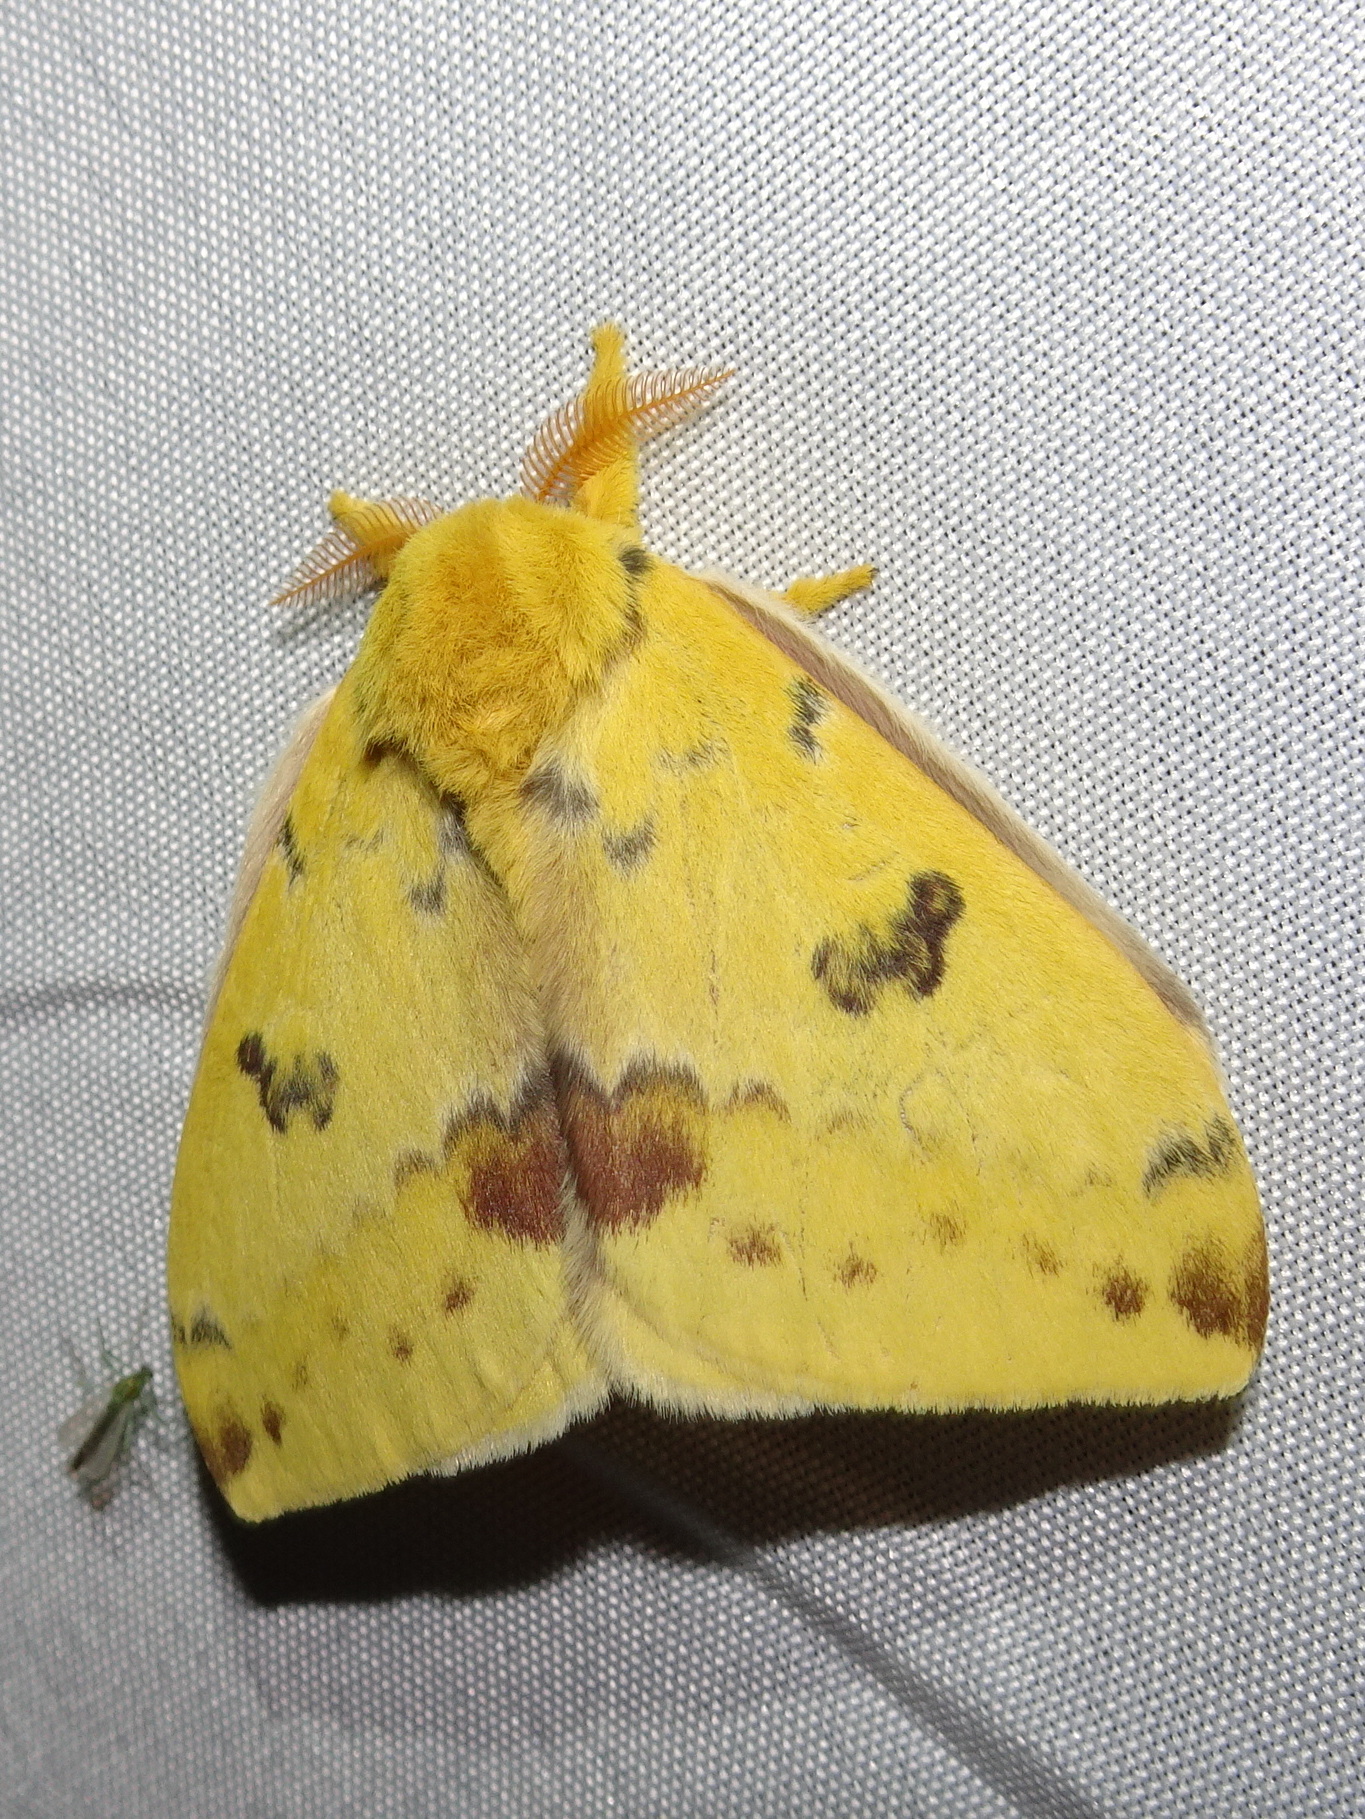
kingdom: Animalia
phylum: Arthropoda
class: Insecta
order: Lepidoptera
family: Saturniidae
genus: Automeris
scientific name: Automeris io
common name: Io moth
